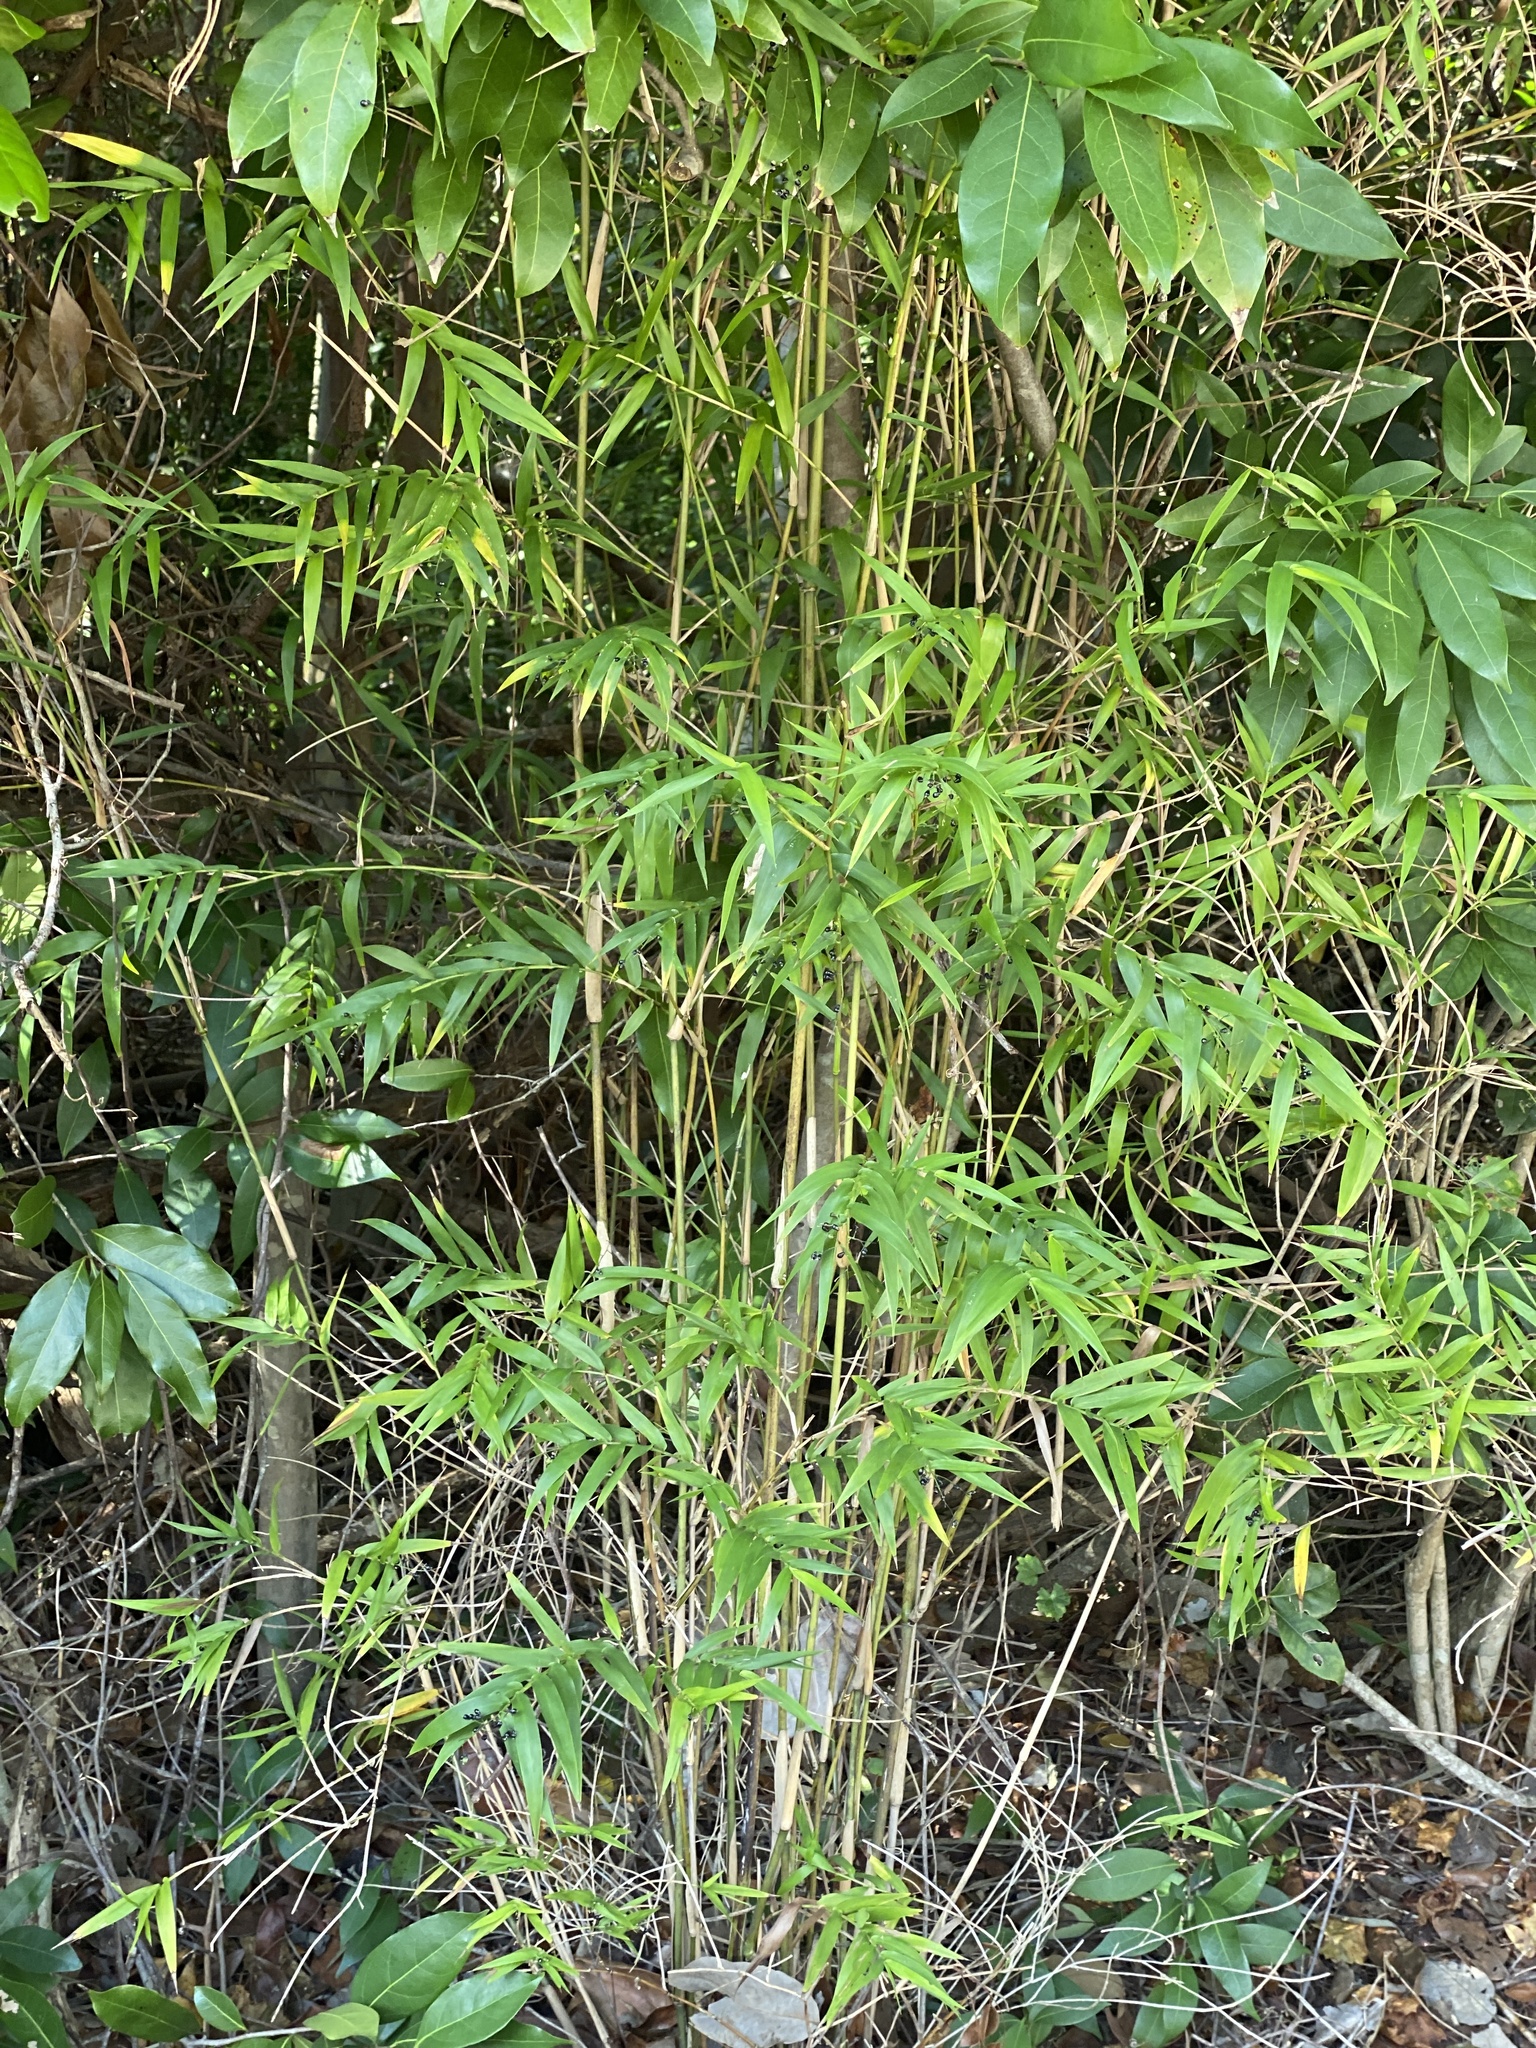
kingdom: Plantae
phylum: Tracheophyta
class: Liliopsida
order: Poales
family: Poaceae
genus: Lasiacis
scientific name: Lasiacis divaricata
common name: Smallcane
